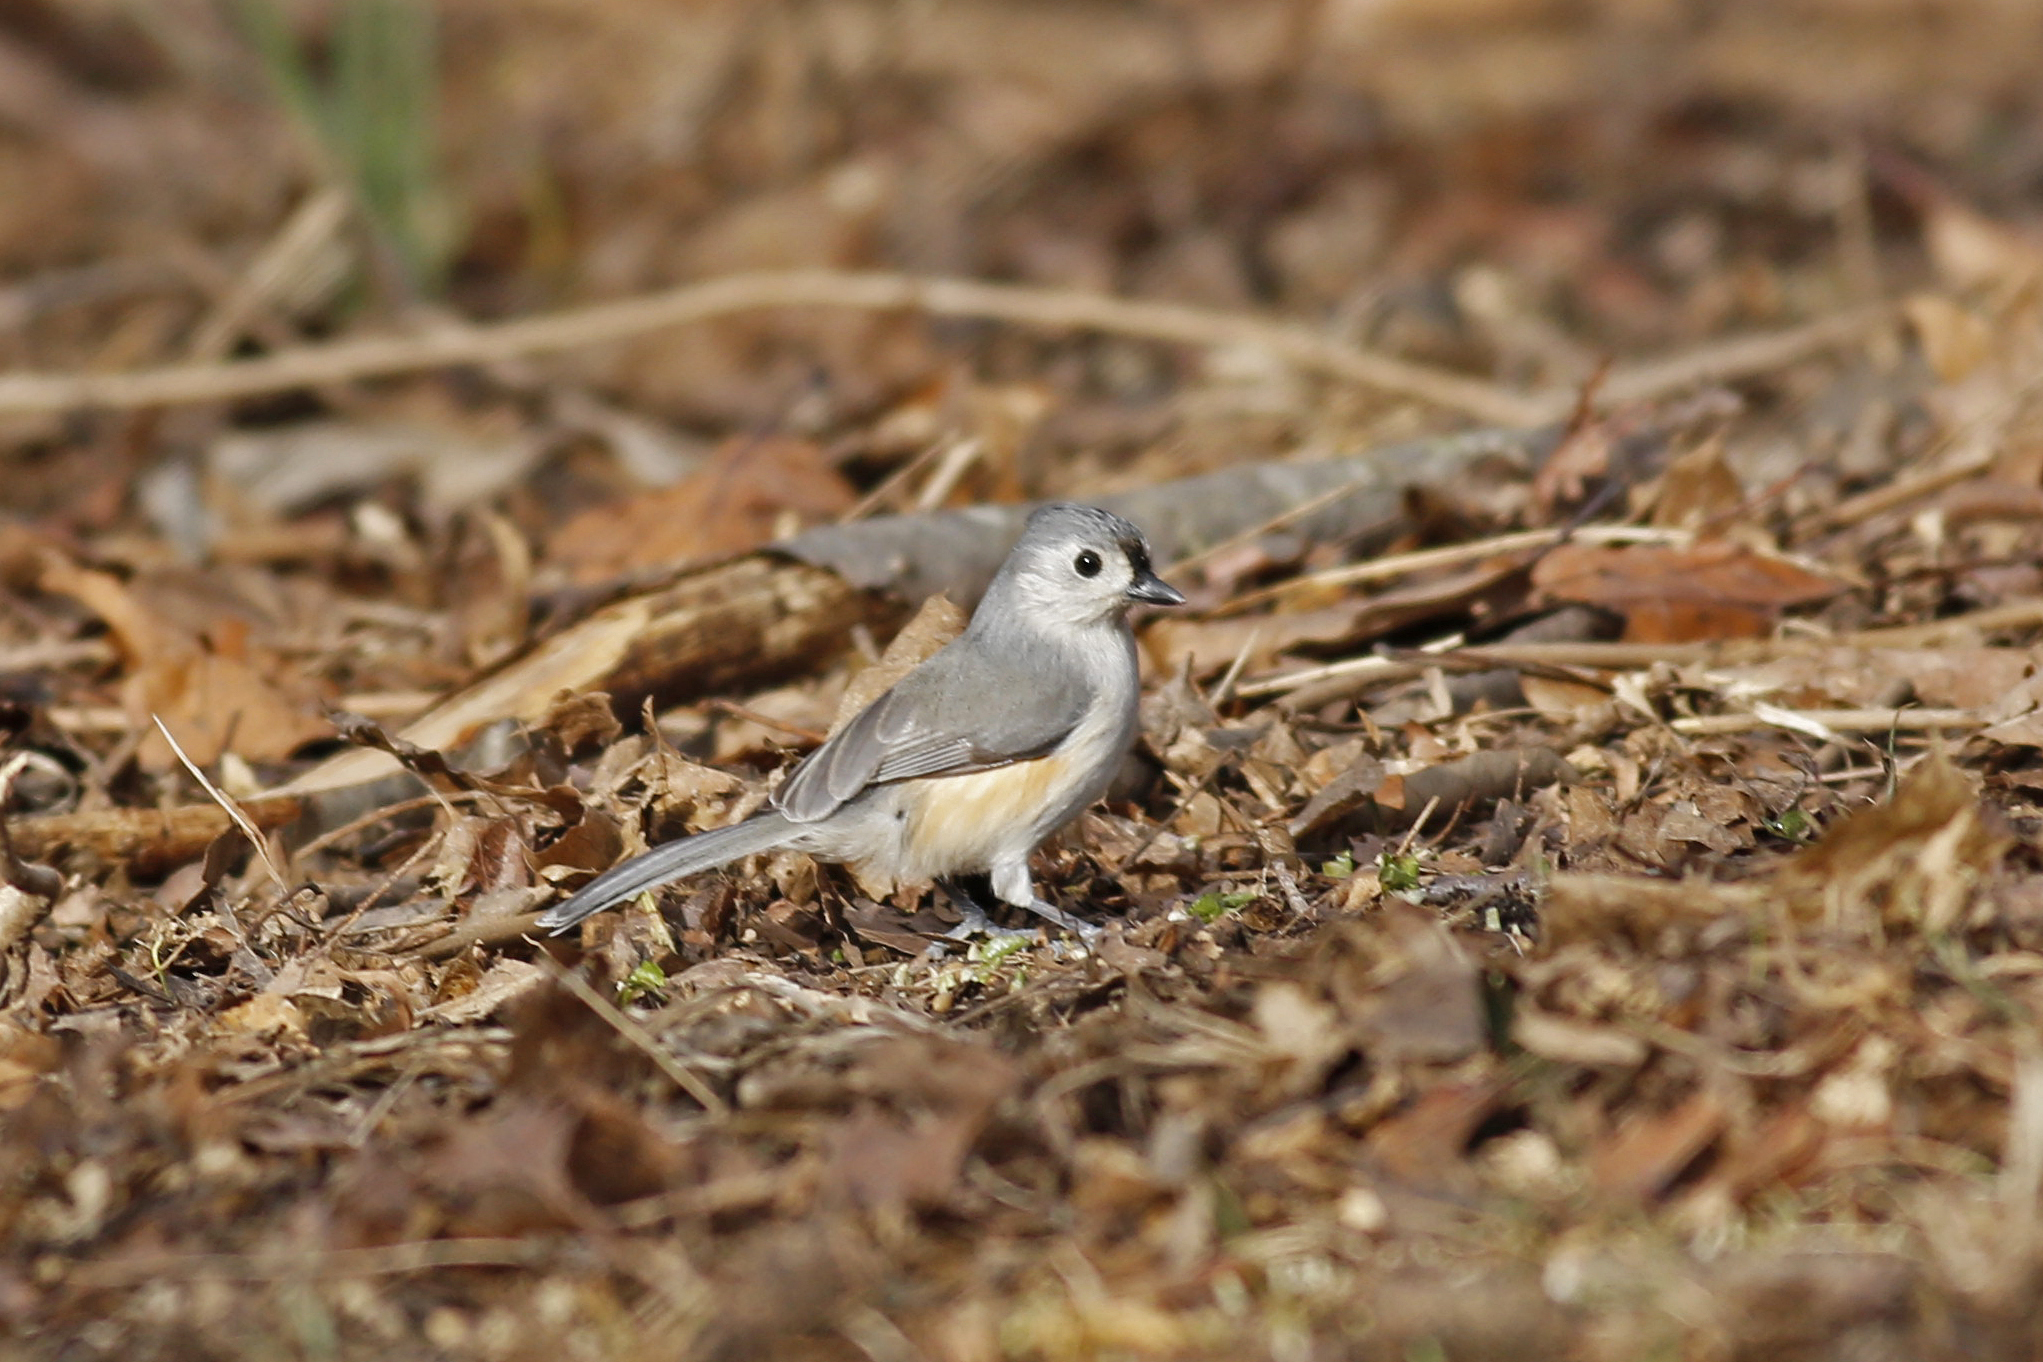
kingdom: Animalia
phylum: Chordata
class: Aves
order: Passeriformes
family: Paridae
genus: Baeolophus
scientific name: Baeolophus bicolor
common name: Tufted titmouse
